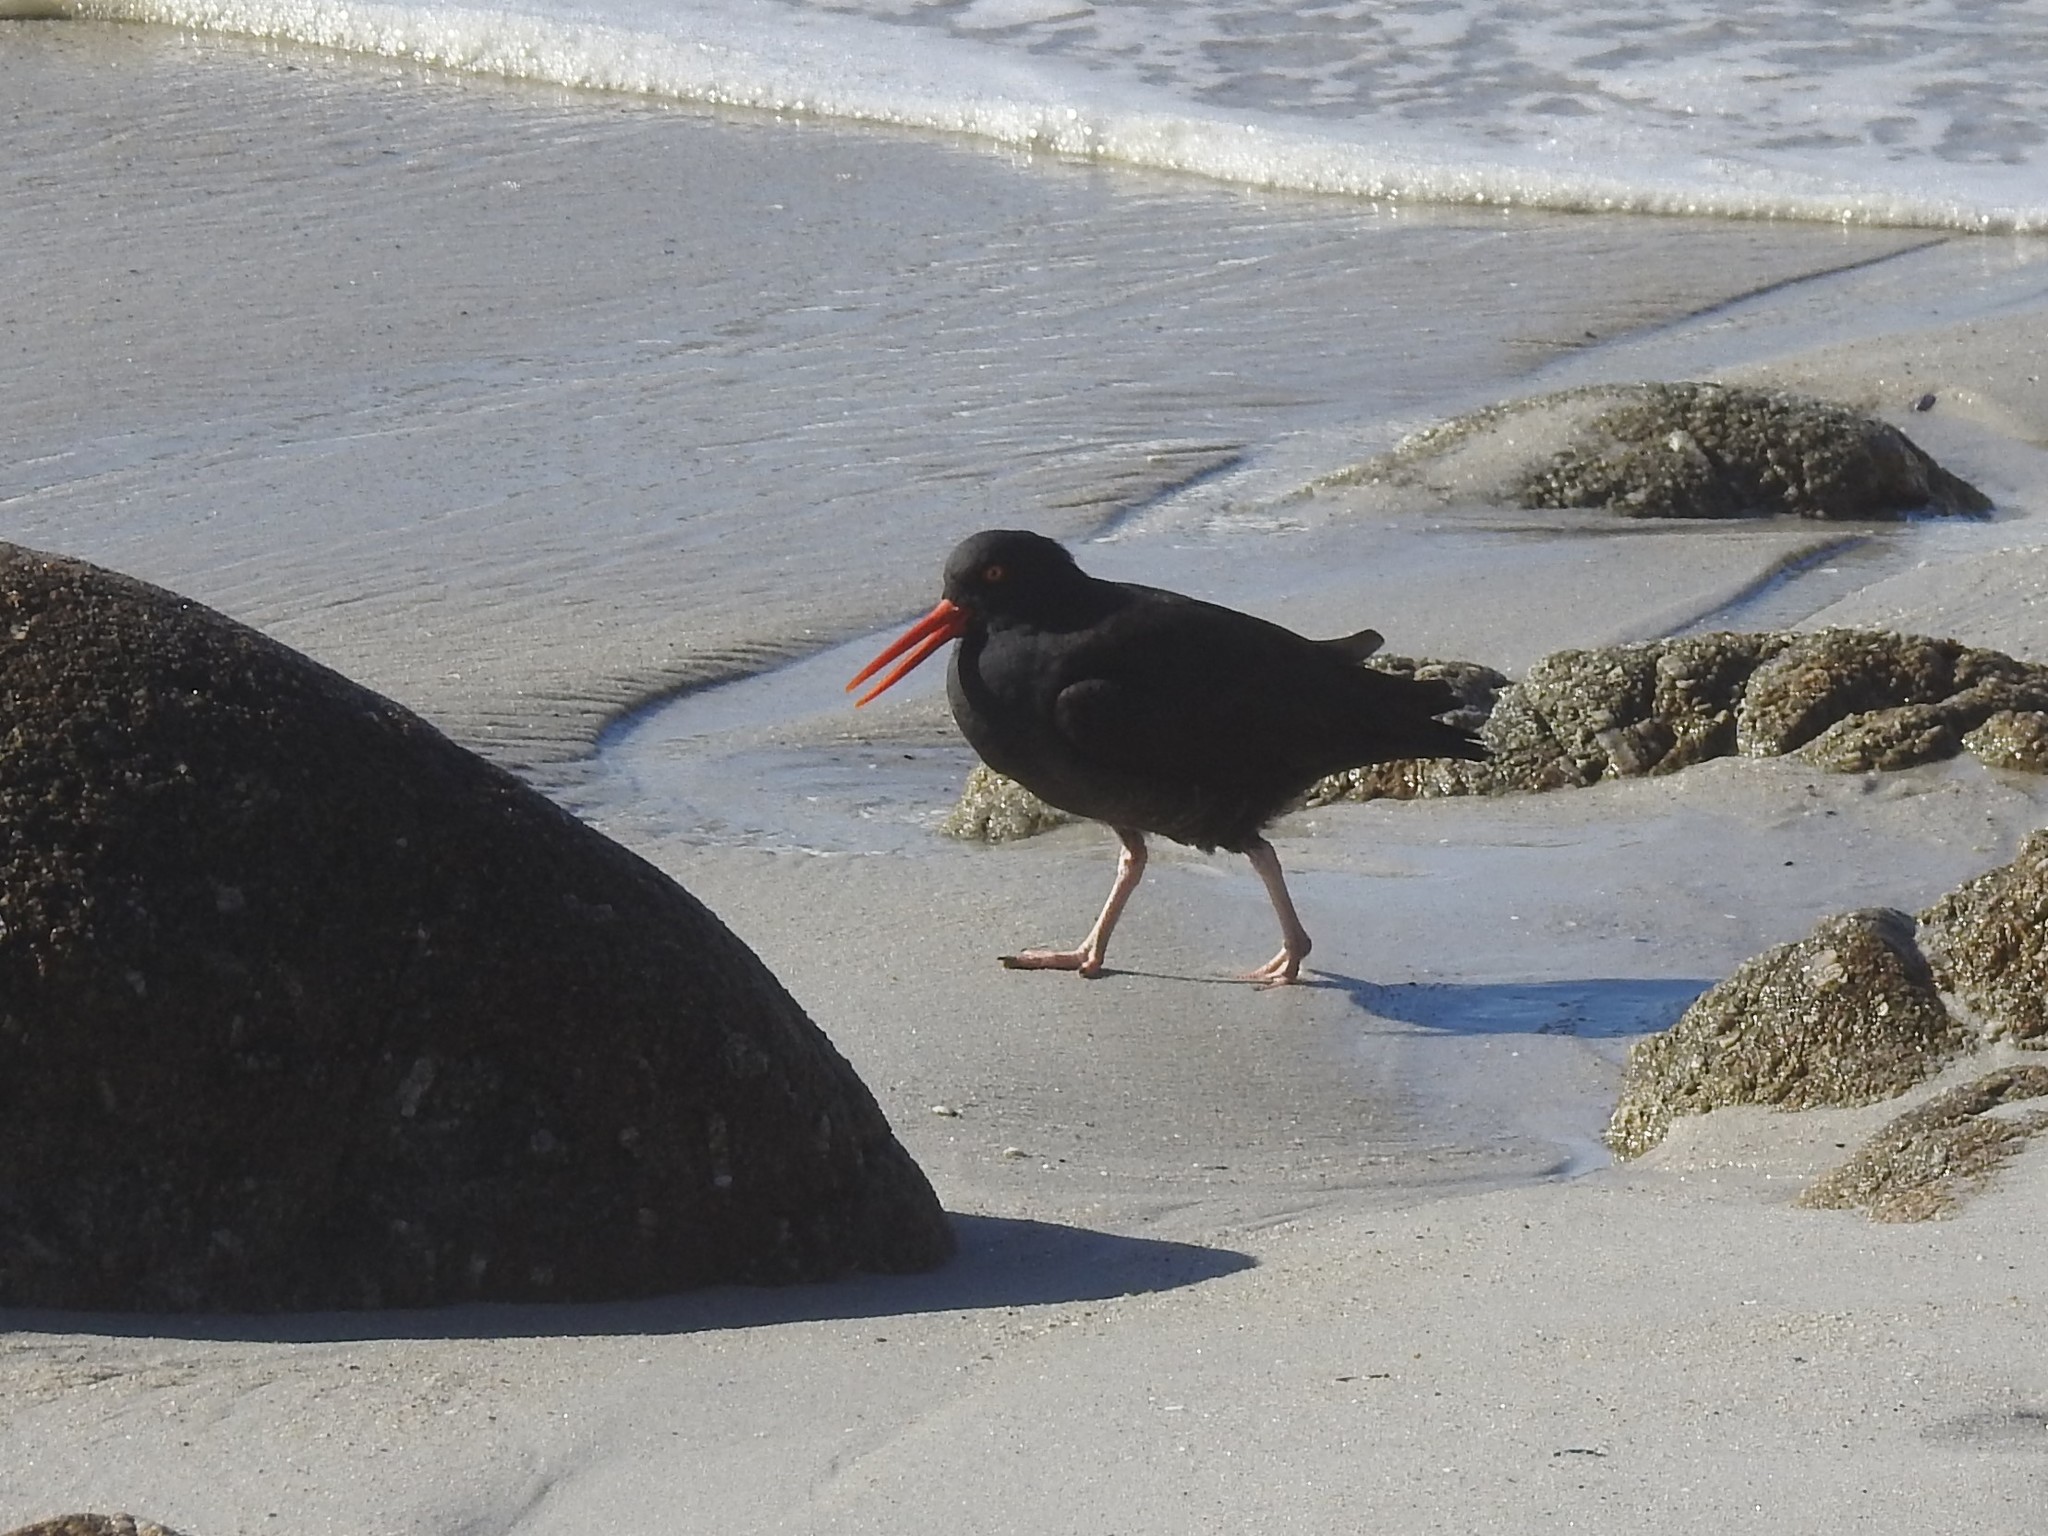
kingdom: Animalia
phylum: Chordata
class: Aves
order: Charadriiformes
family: Haematopodidae
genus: Haematopus
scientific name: Haematopus bachmani
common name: Black oystercatcher
